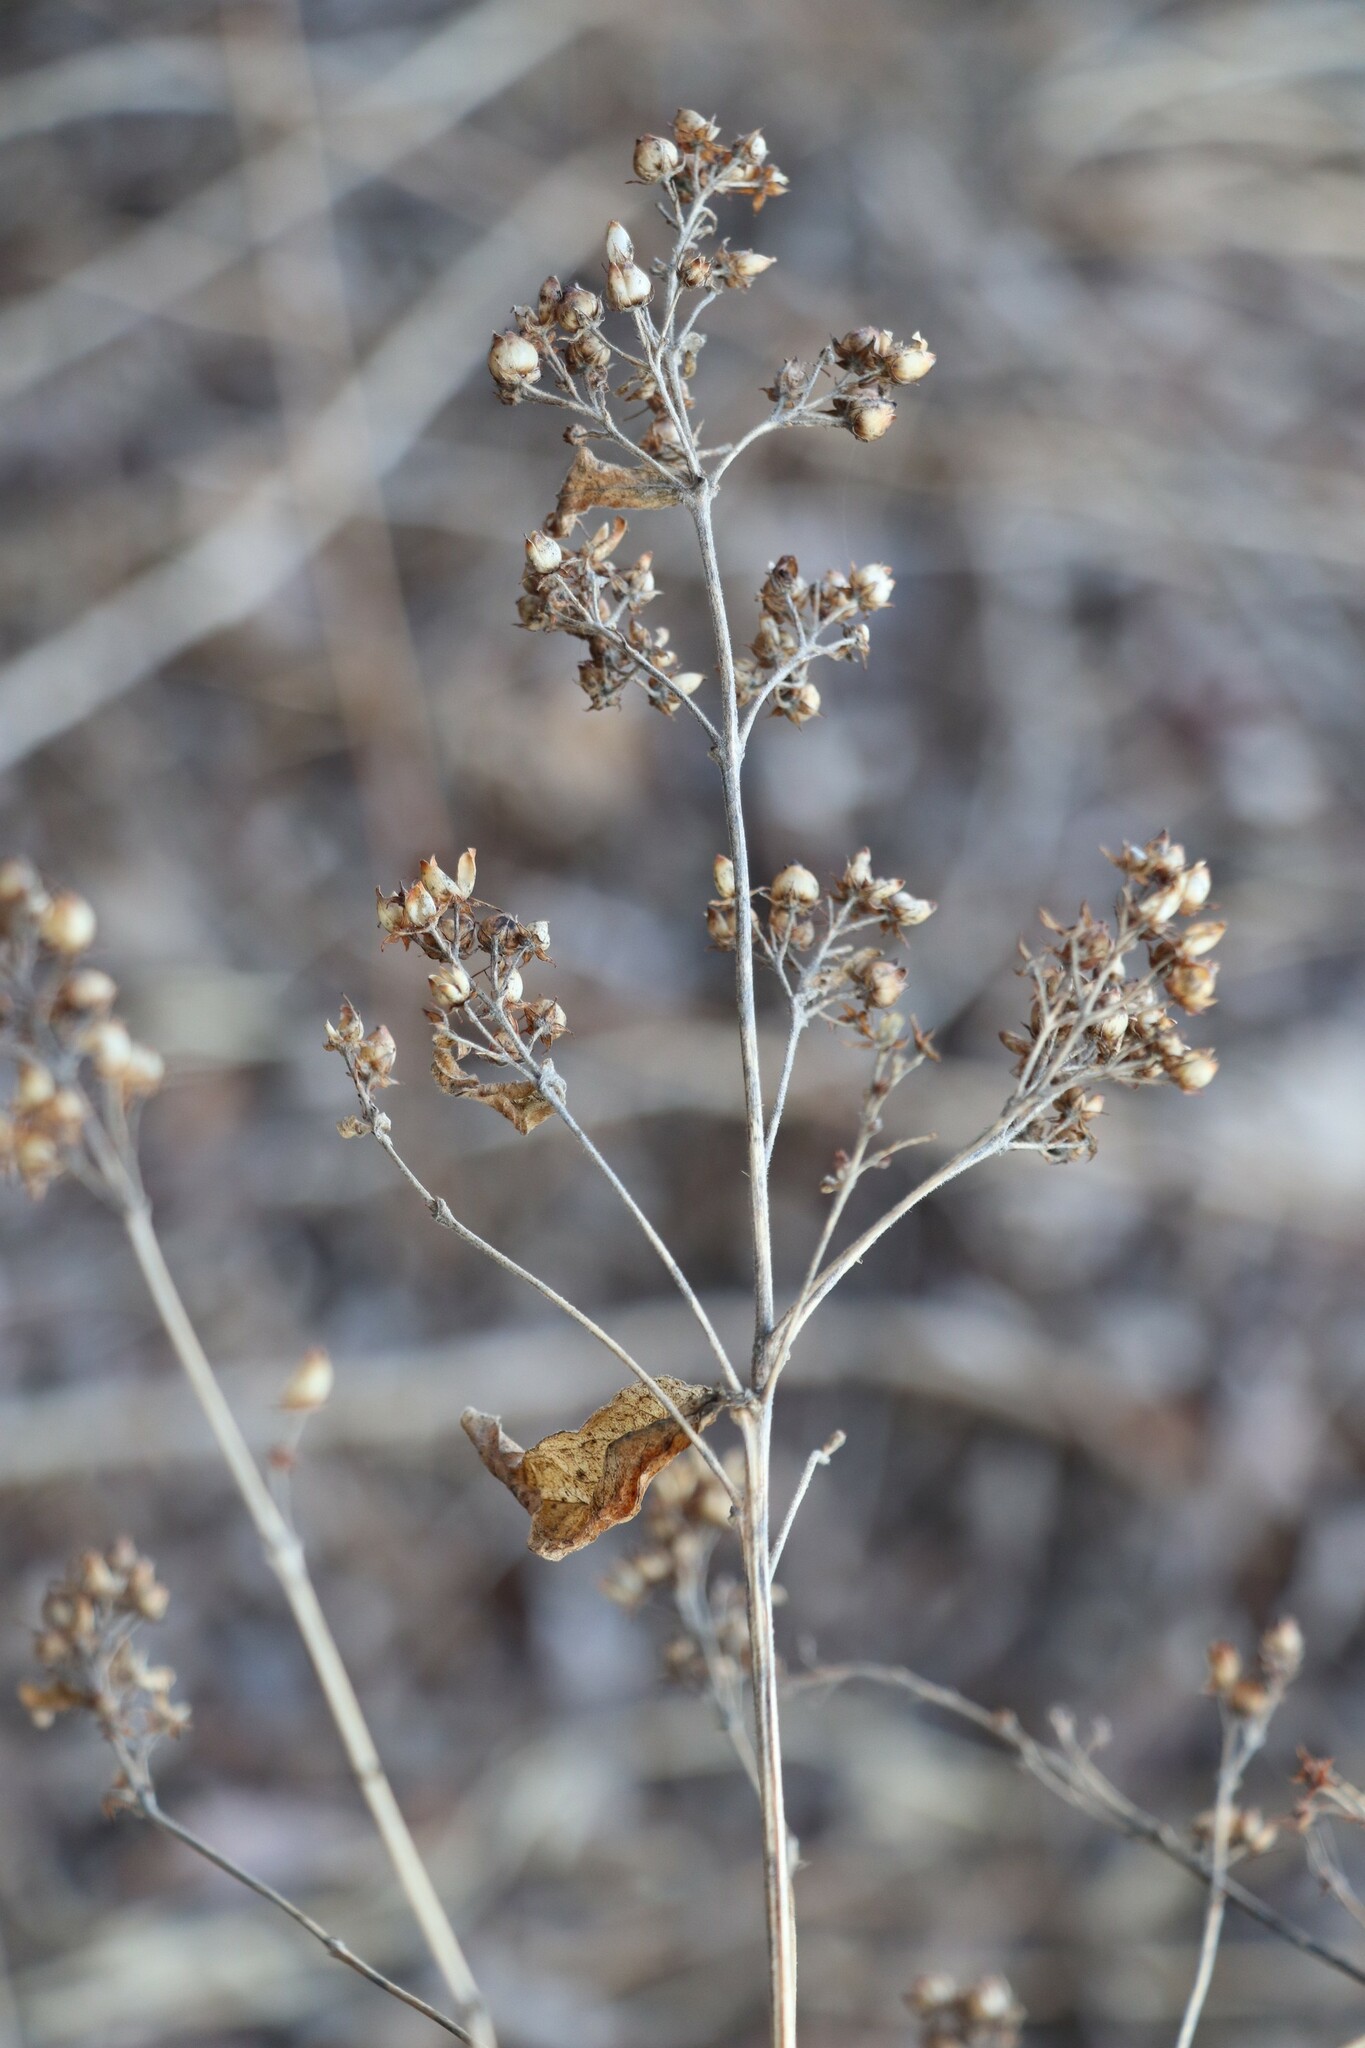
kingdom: Plantae
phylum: Tracheophyta
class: Magnoliopsida
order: Ericales
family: Primulaceae
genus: Lysimachia
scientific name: Lysimachia vulgaris
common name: Yellow loosestrife
